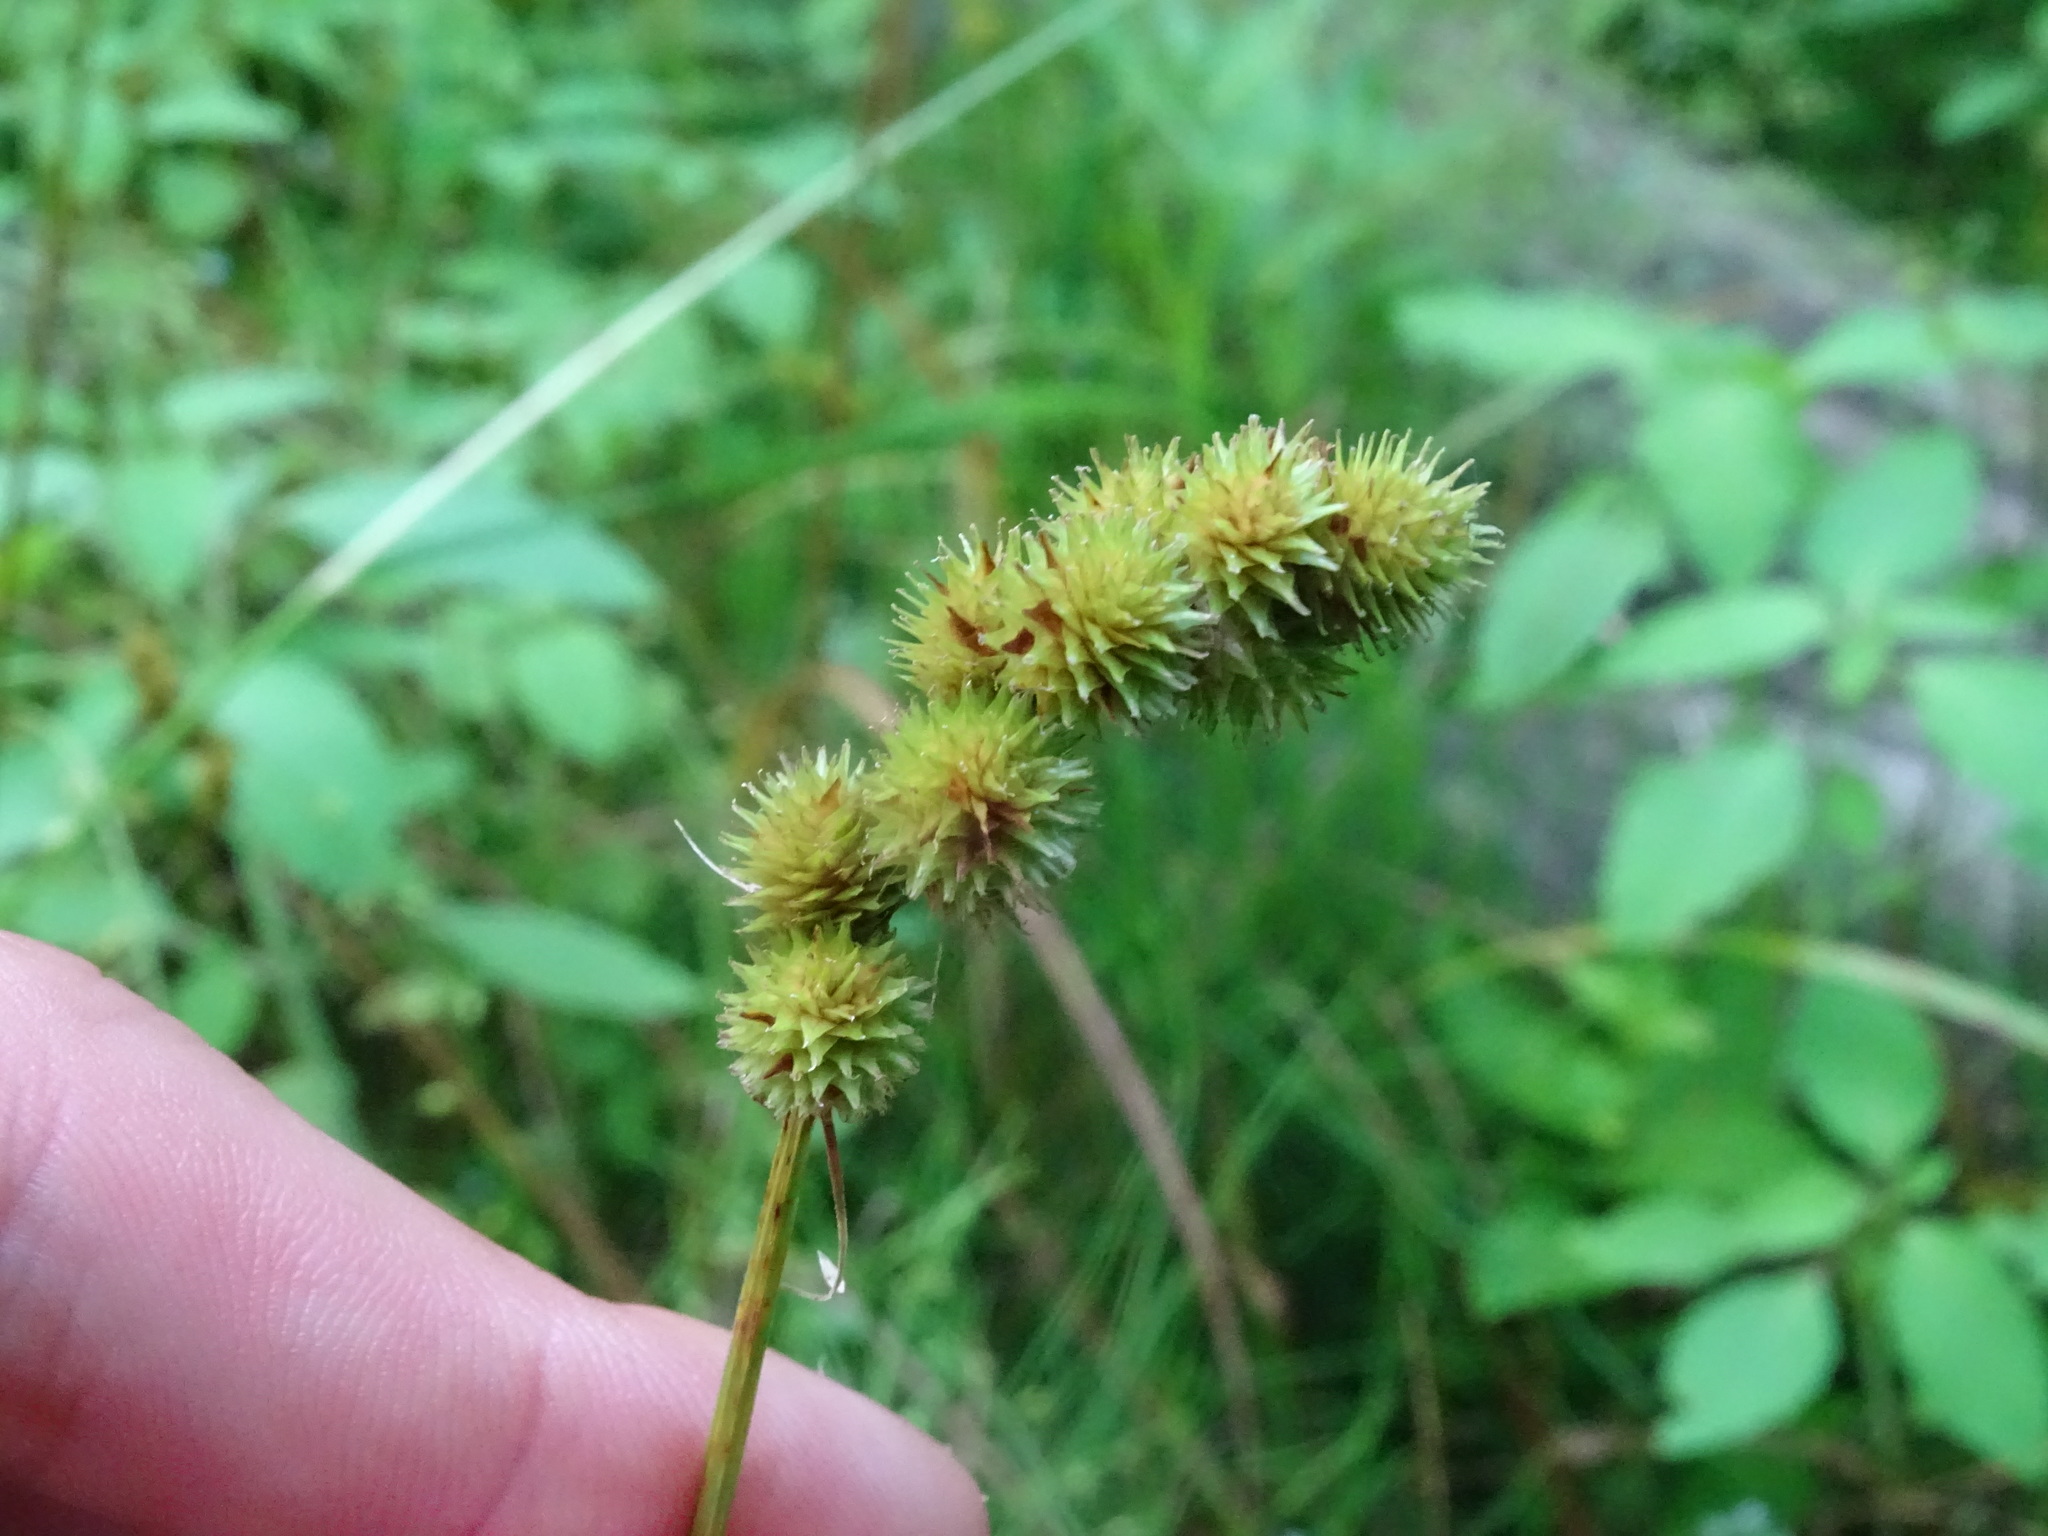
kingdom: Plantae
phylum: Tracheophyta
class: Liliopsida
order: Poales
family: Cyperaceae
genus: Carex
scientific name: Carex cristatella
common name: Crested oval sedge
